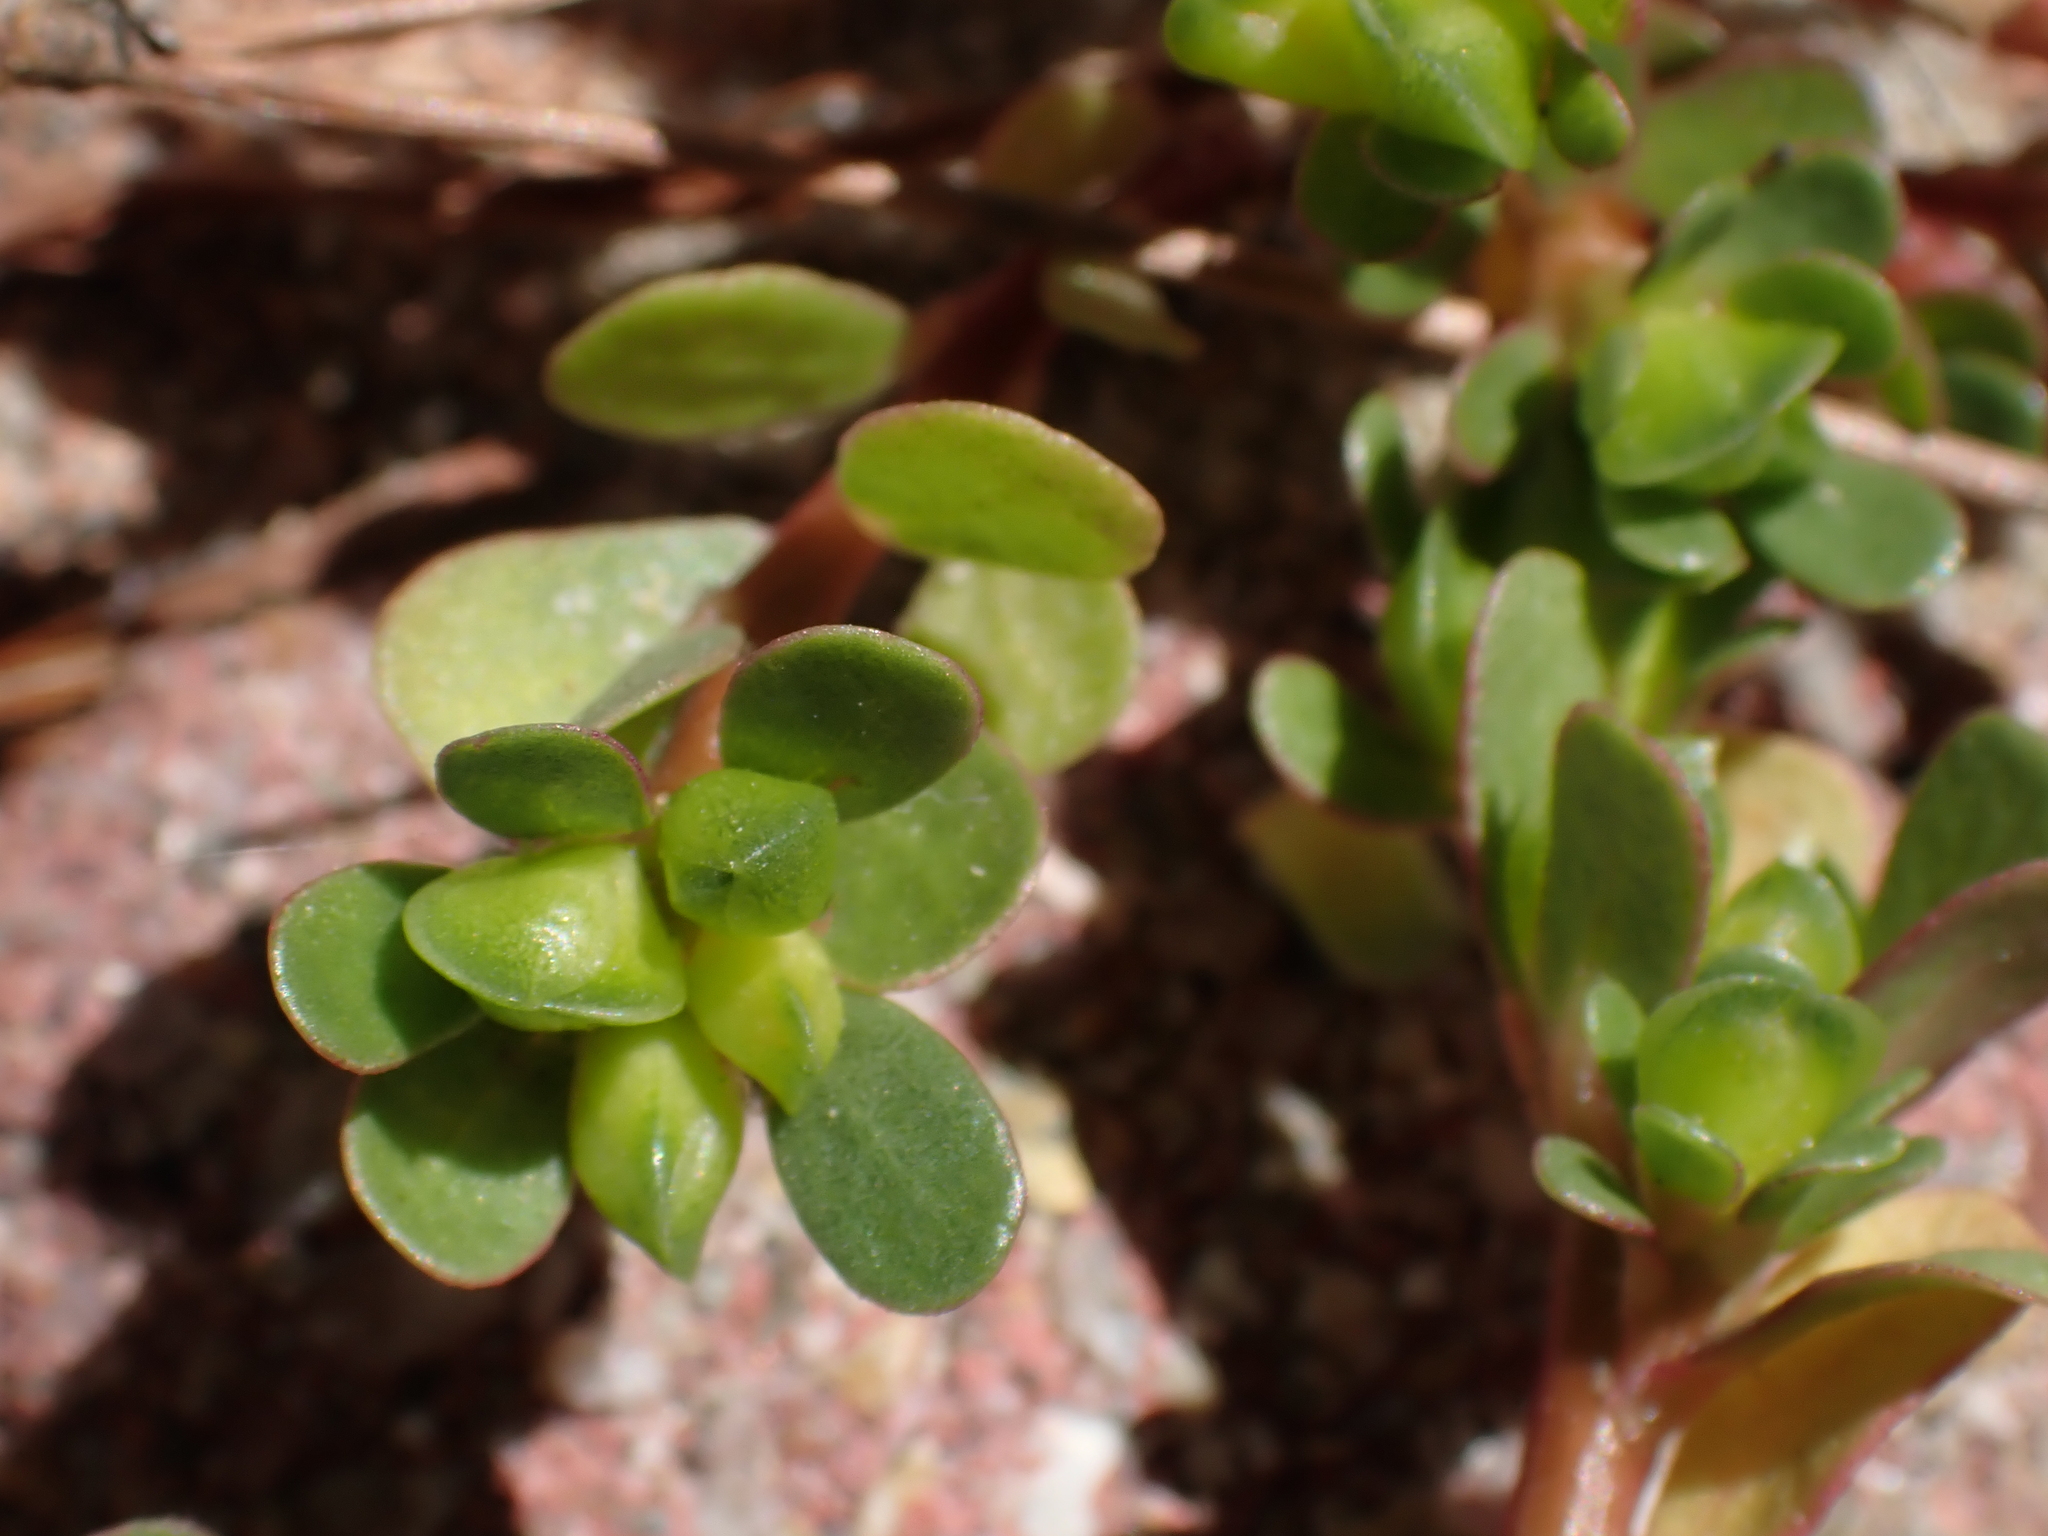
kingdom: Plantae
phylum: Tracheophyta
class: Magnoliopsida
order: Caryophyllales
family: Portulacaceae
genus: Portulaca
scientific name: Portulaca oleracea
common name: Common purslane
